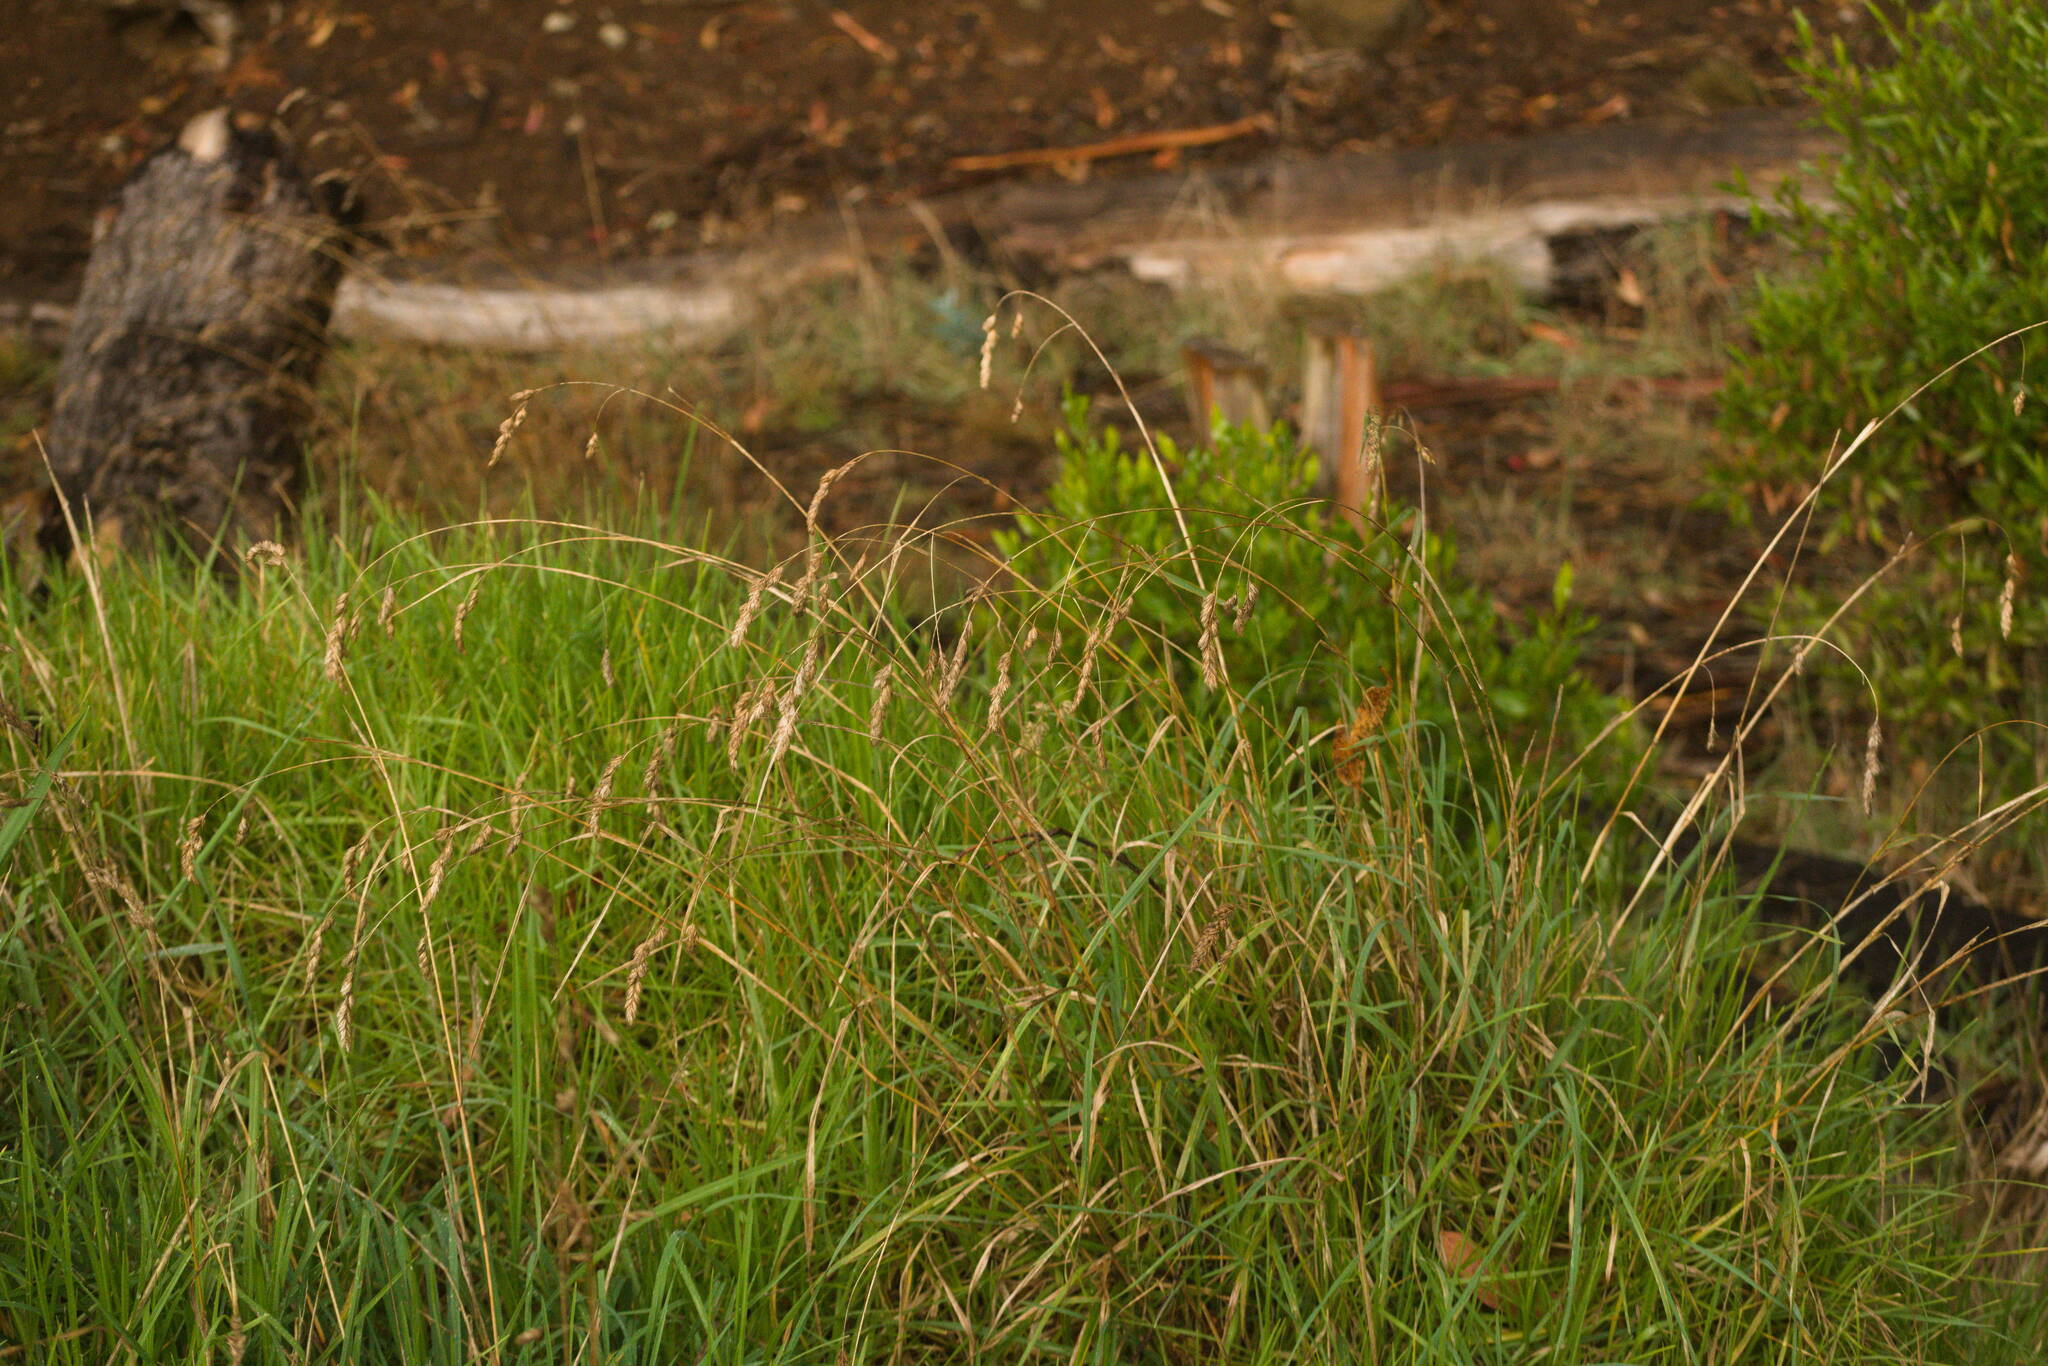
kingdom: Plantae
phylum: Tracheophyta
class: Liliopsida
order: Poales
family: Poaceae
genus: Dactylis
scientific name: Dactylis glomerata
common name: Orchardgrass
